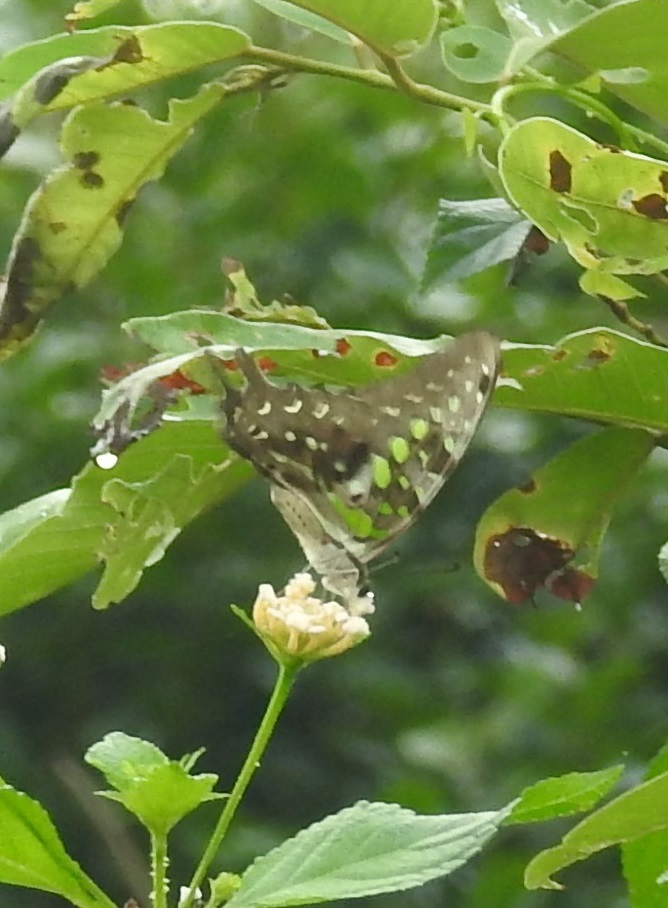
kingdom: Animalia
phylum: Arthropoda
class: Insecta
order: Lepidoptera
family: Papilionidae
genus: Graphium
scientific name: Graphium agamemnon
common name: Tailed jay
